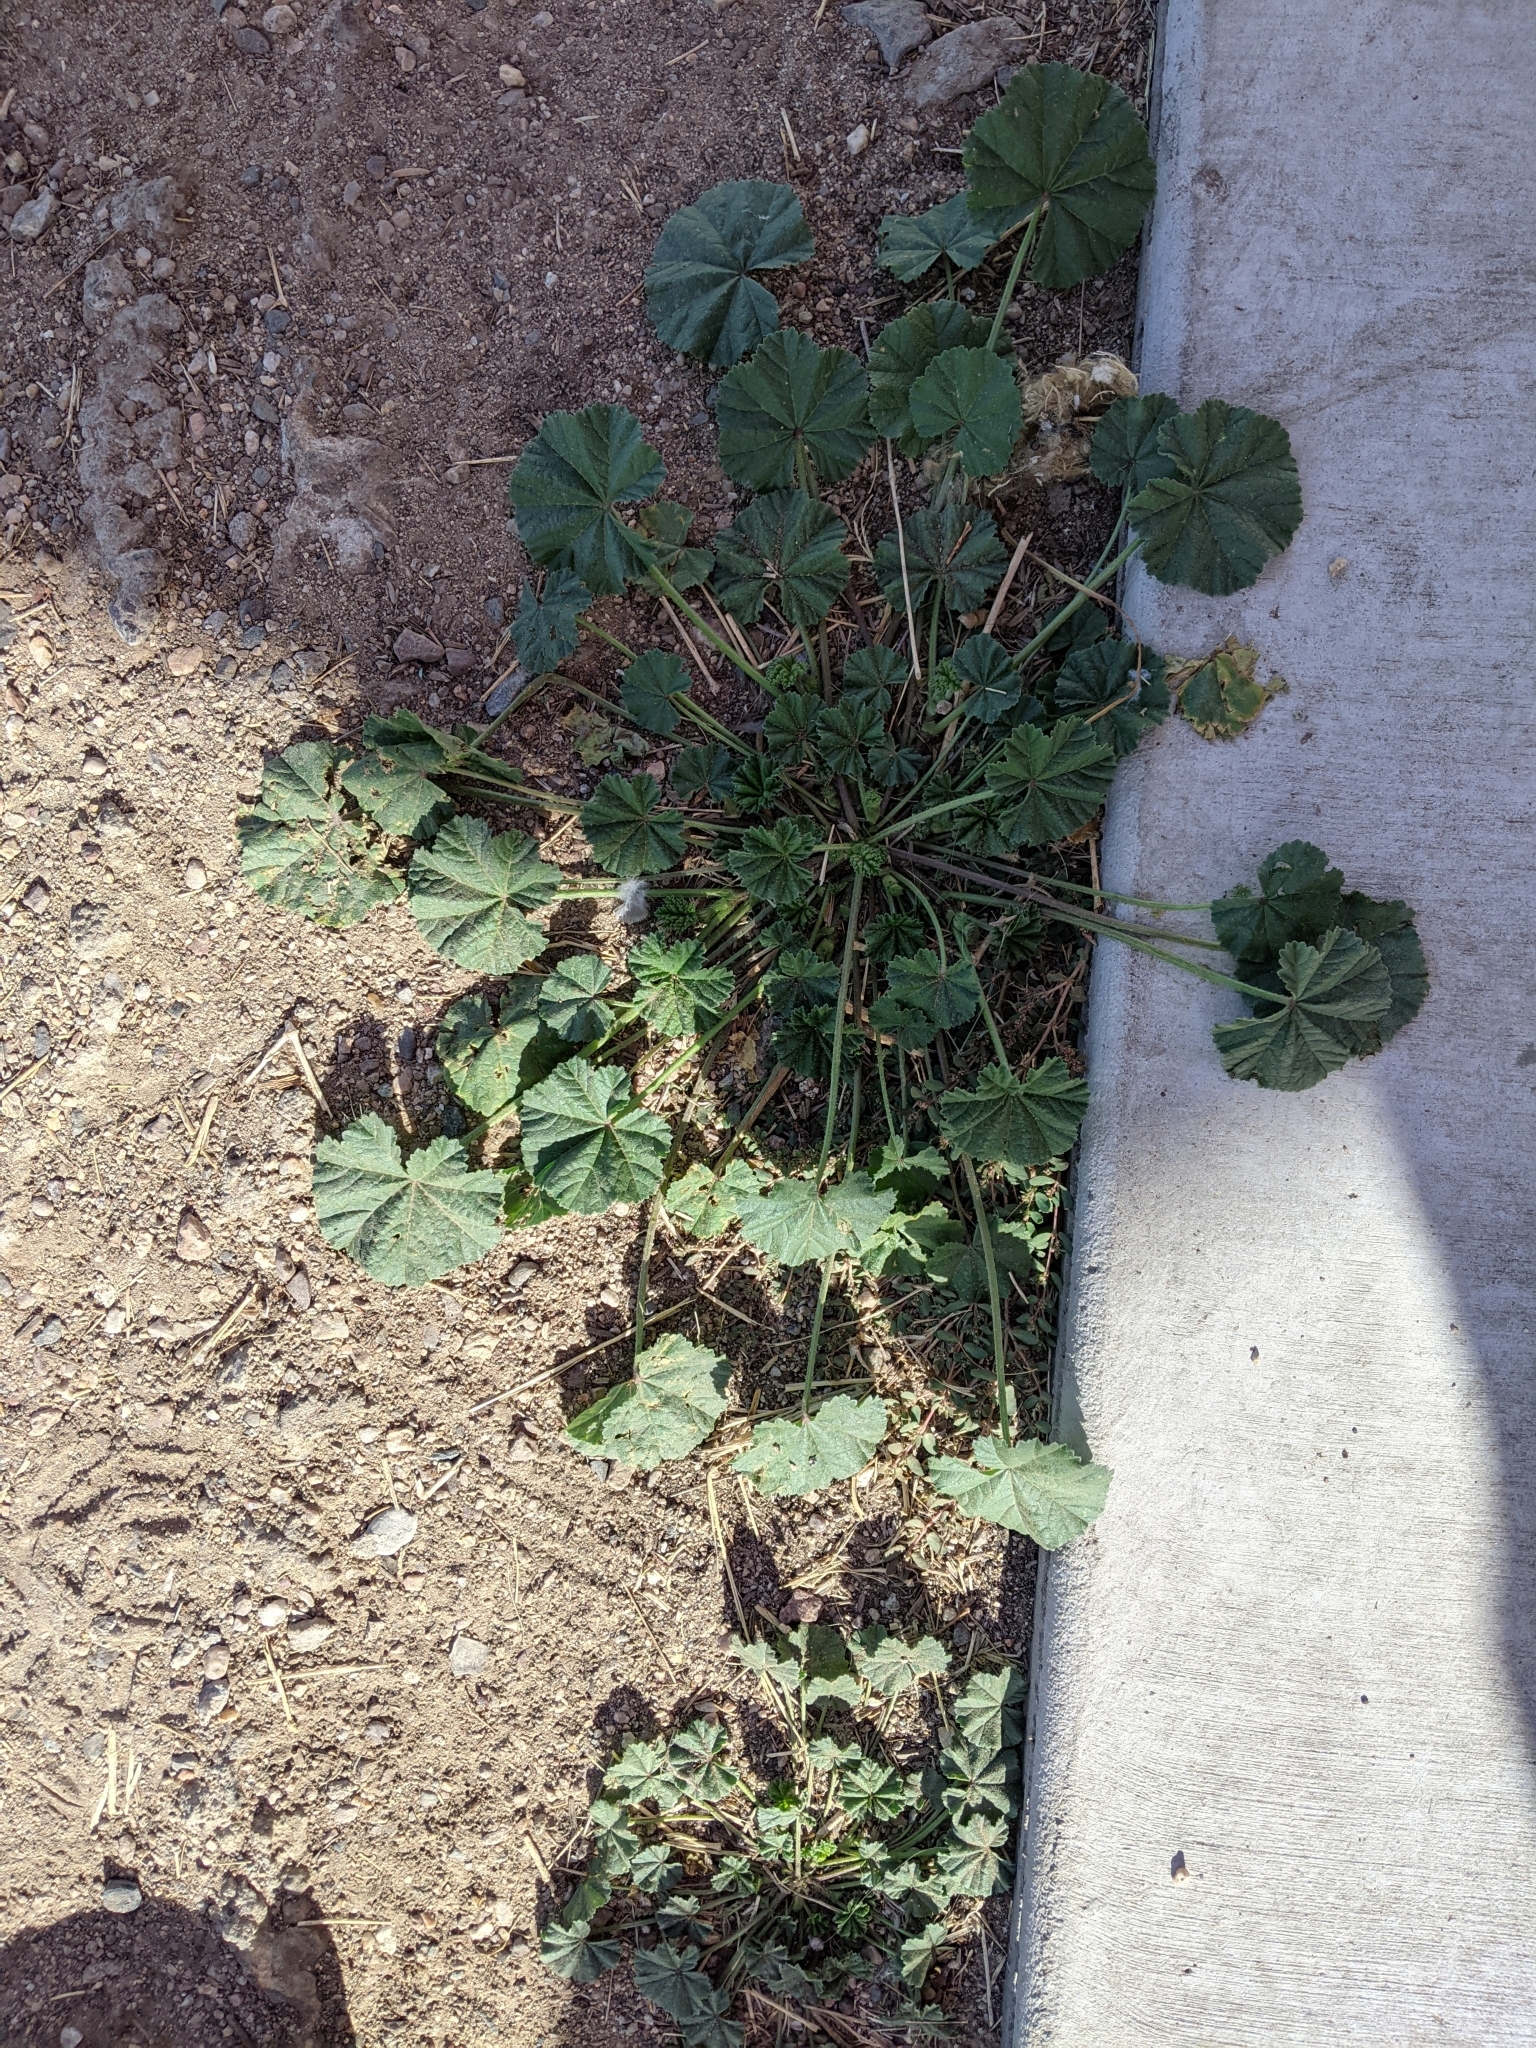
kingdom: Plantae
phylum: Tracheophyta
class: Magnoliopsida
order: Malvales
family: Malvaceae
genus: Malva
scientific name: Malva parviflora
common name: Least mallow
